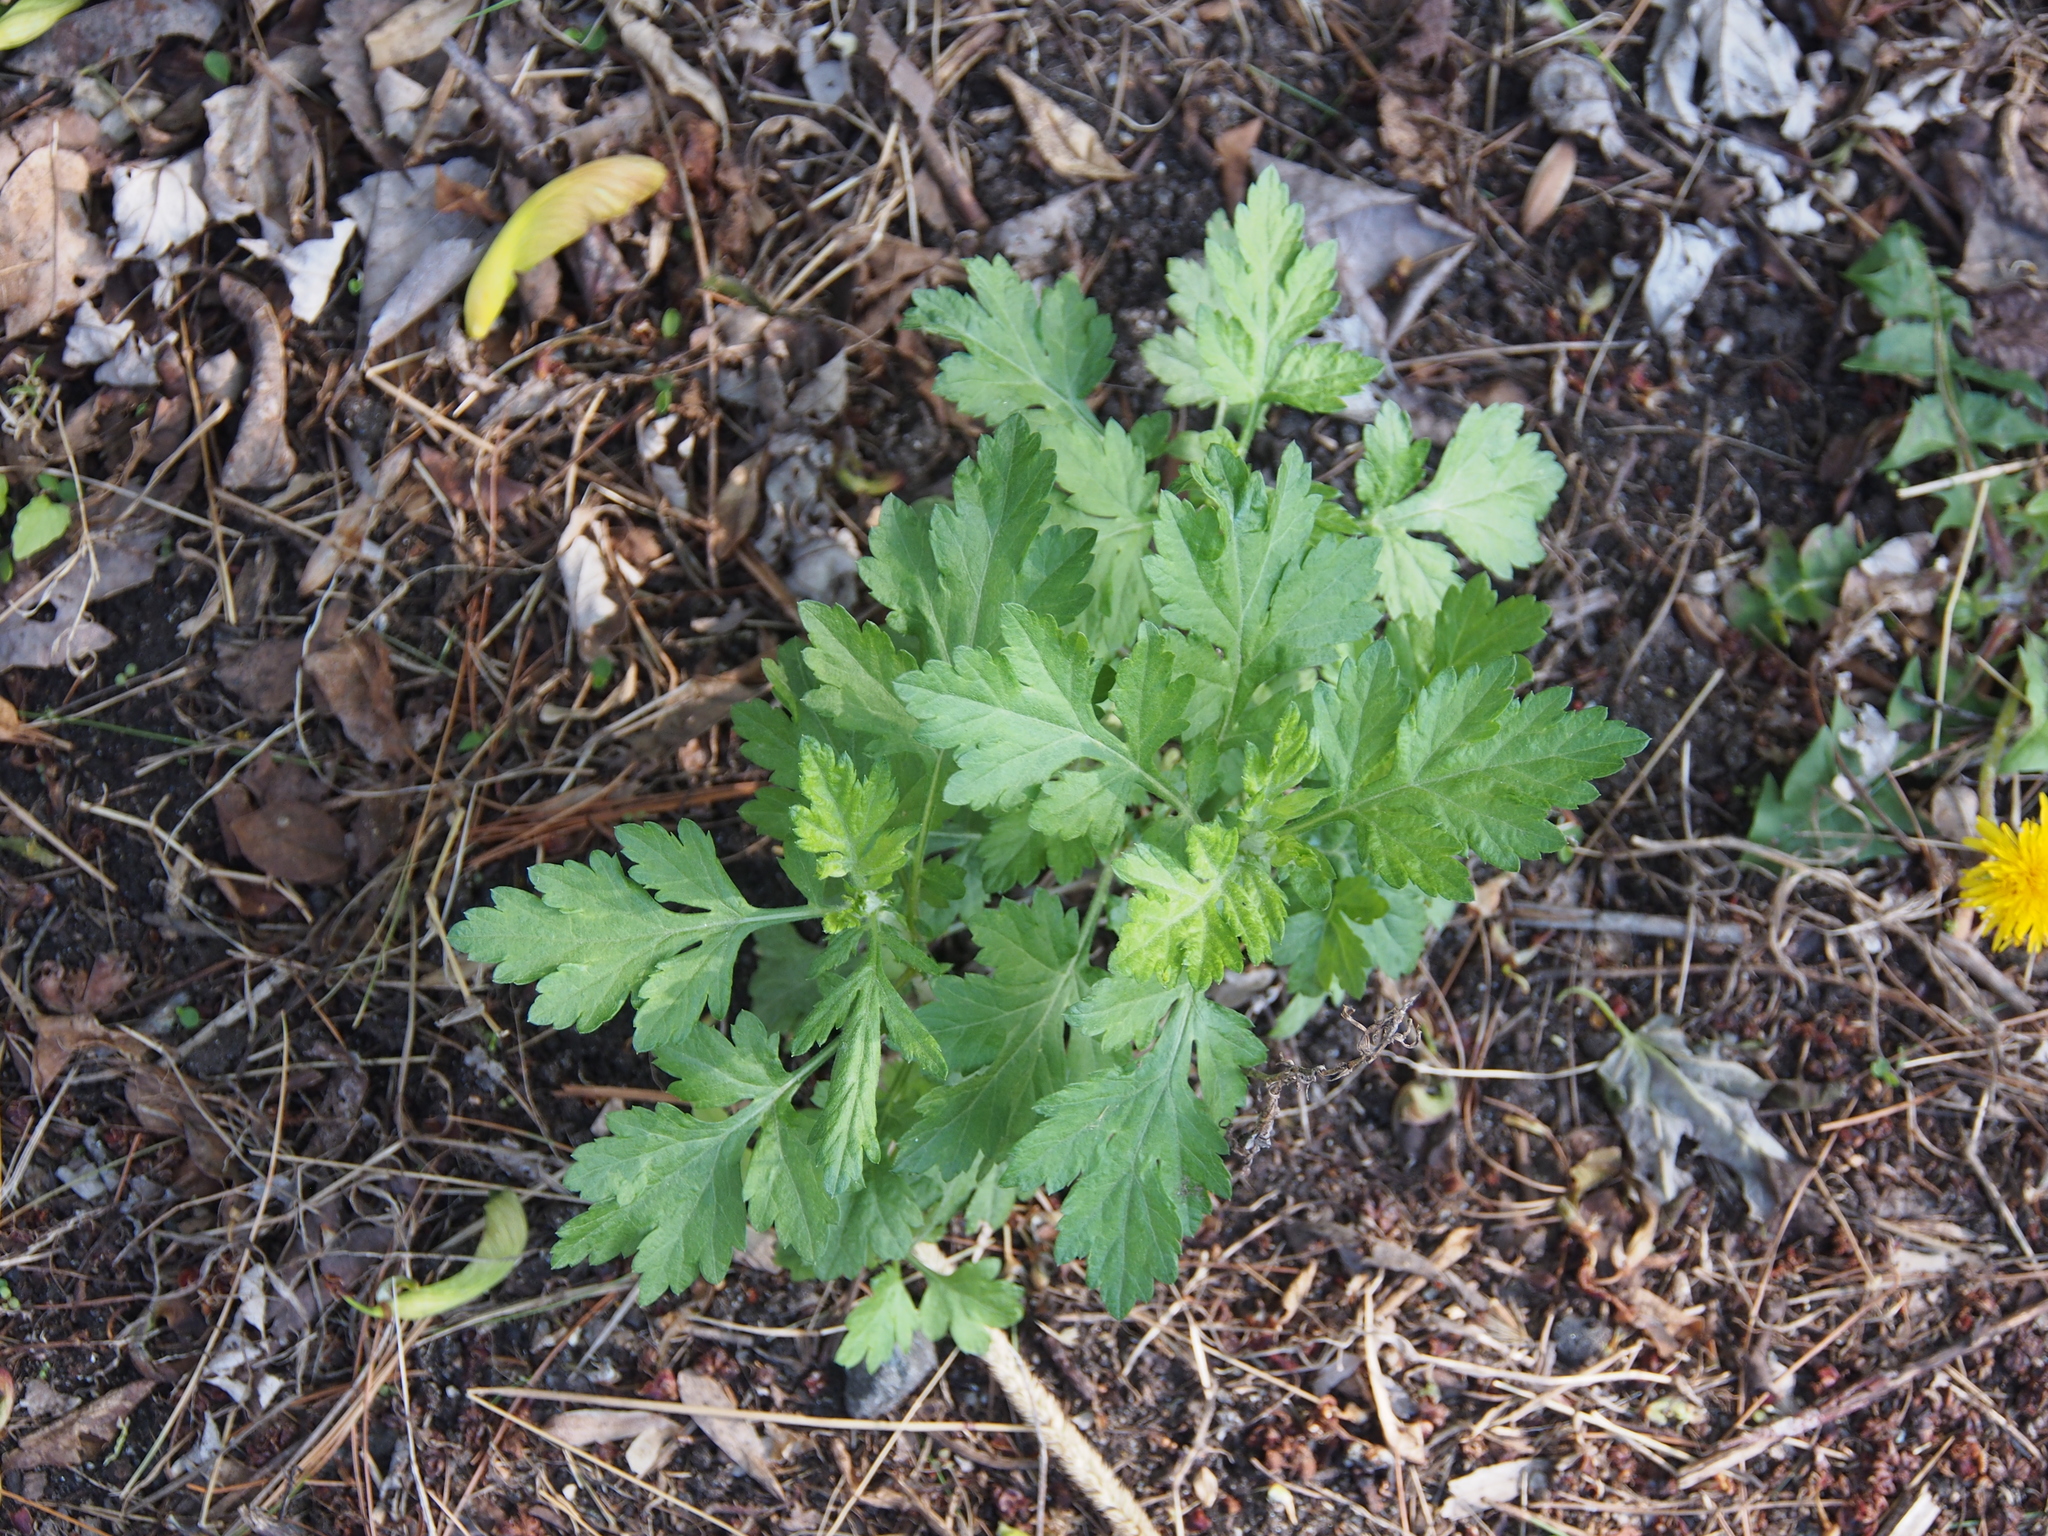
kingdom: Plantae
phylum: Tracheophyta
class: Magnoliopsida
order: Asterales
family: Asteraceae
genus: Artemisia
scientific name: Artemisia vulgaris
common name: Mugwort
